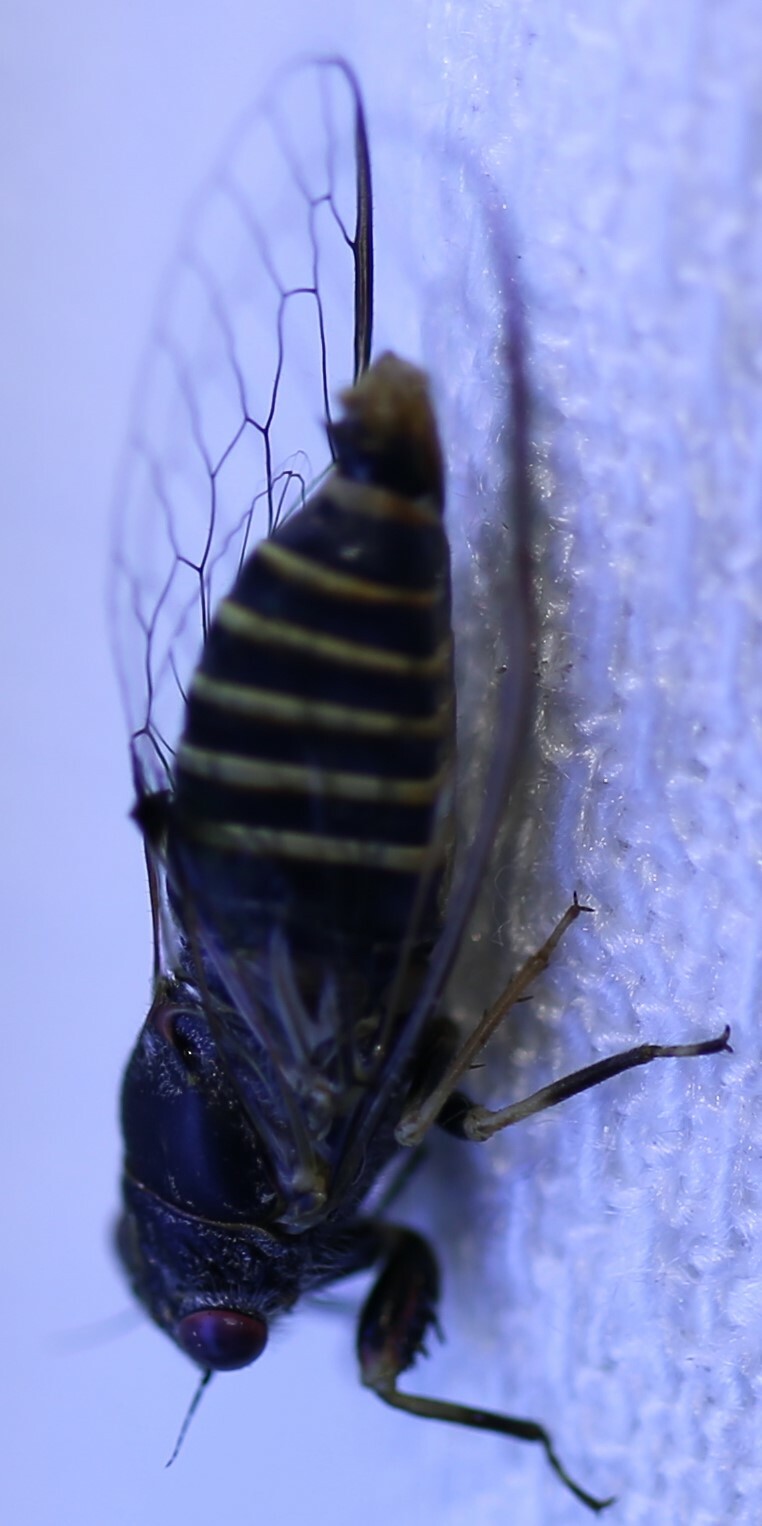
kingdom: Animalia
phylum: Arthropoda
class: Insecta
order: Hemiptera
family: Cicadidae
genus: Popplepsalta
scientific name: Popplepsalta annulata
